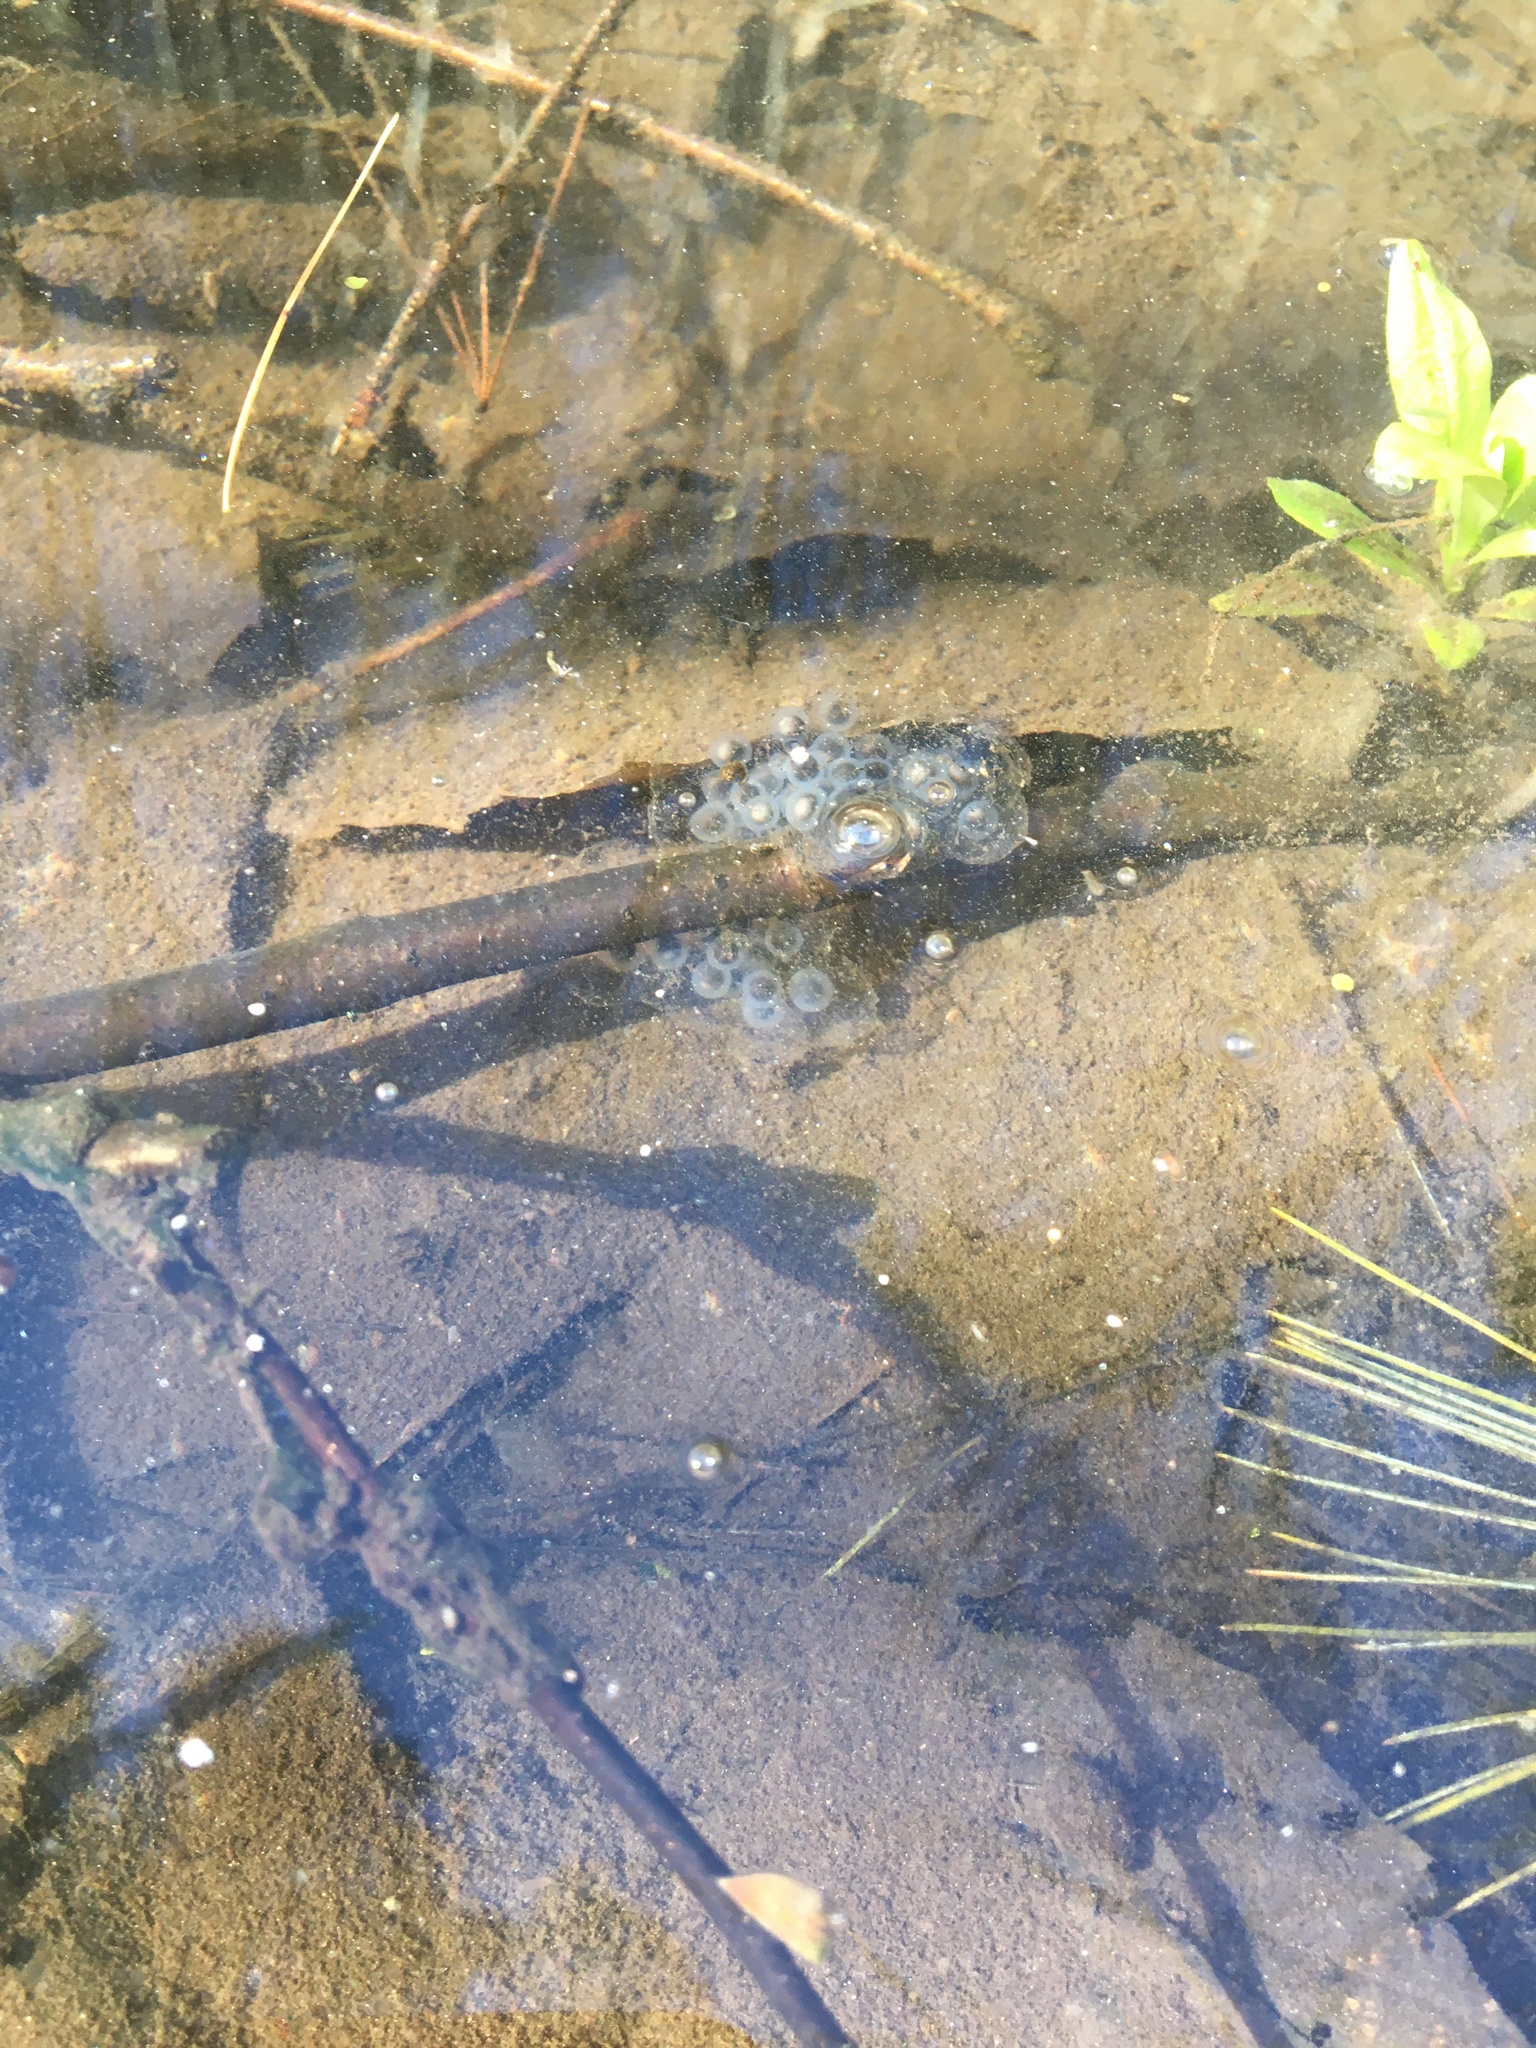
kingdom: Animalia
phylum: Chordata
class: Amphibia
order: Caudata
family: Ambystomatidae
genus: Ambystoma
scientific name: Ambystoma maculatum
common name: Spotted salamander
